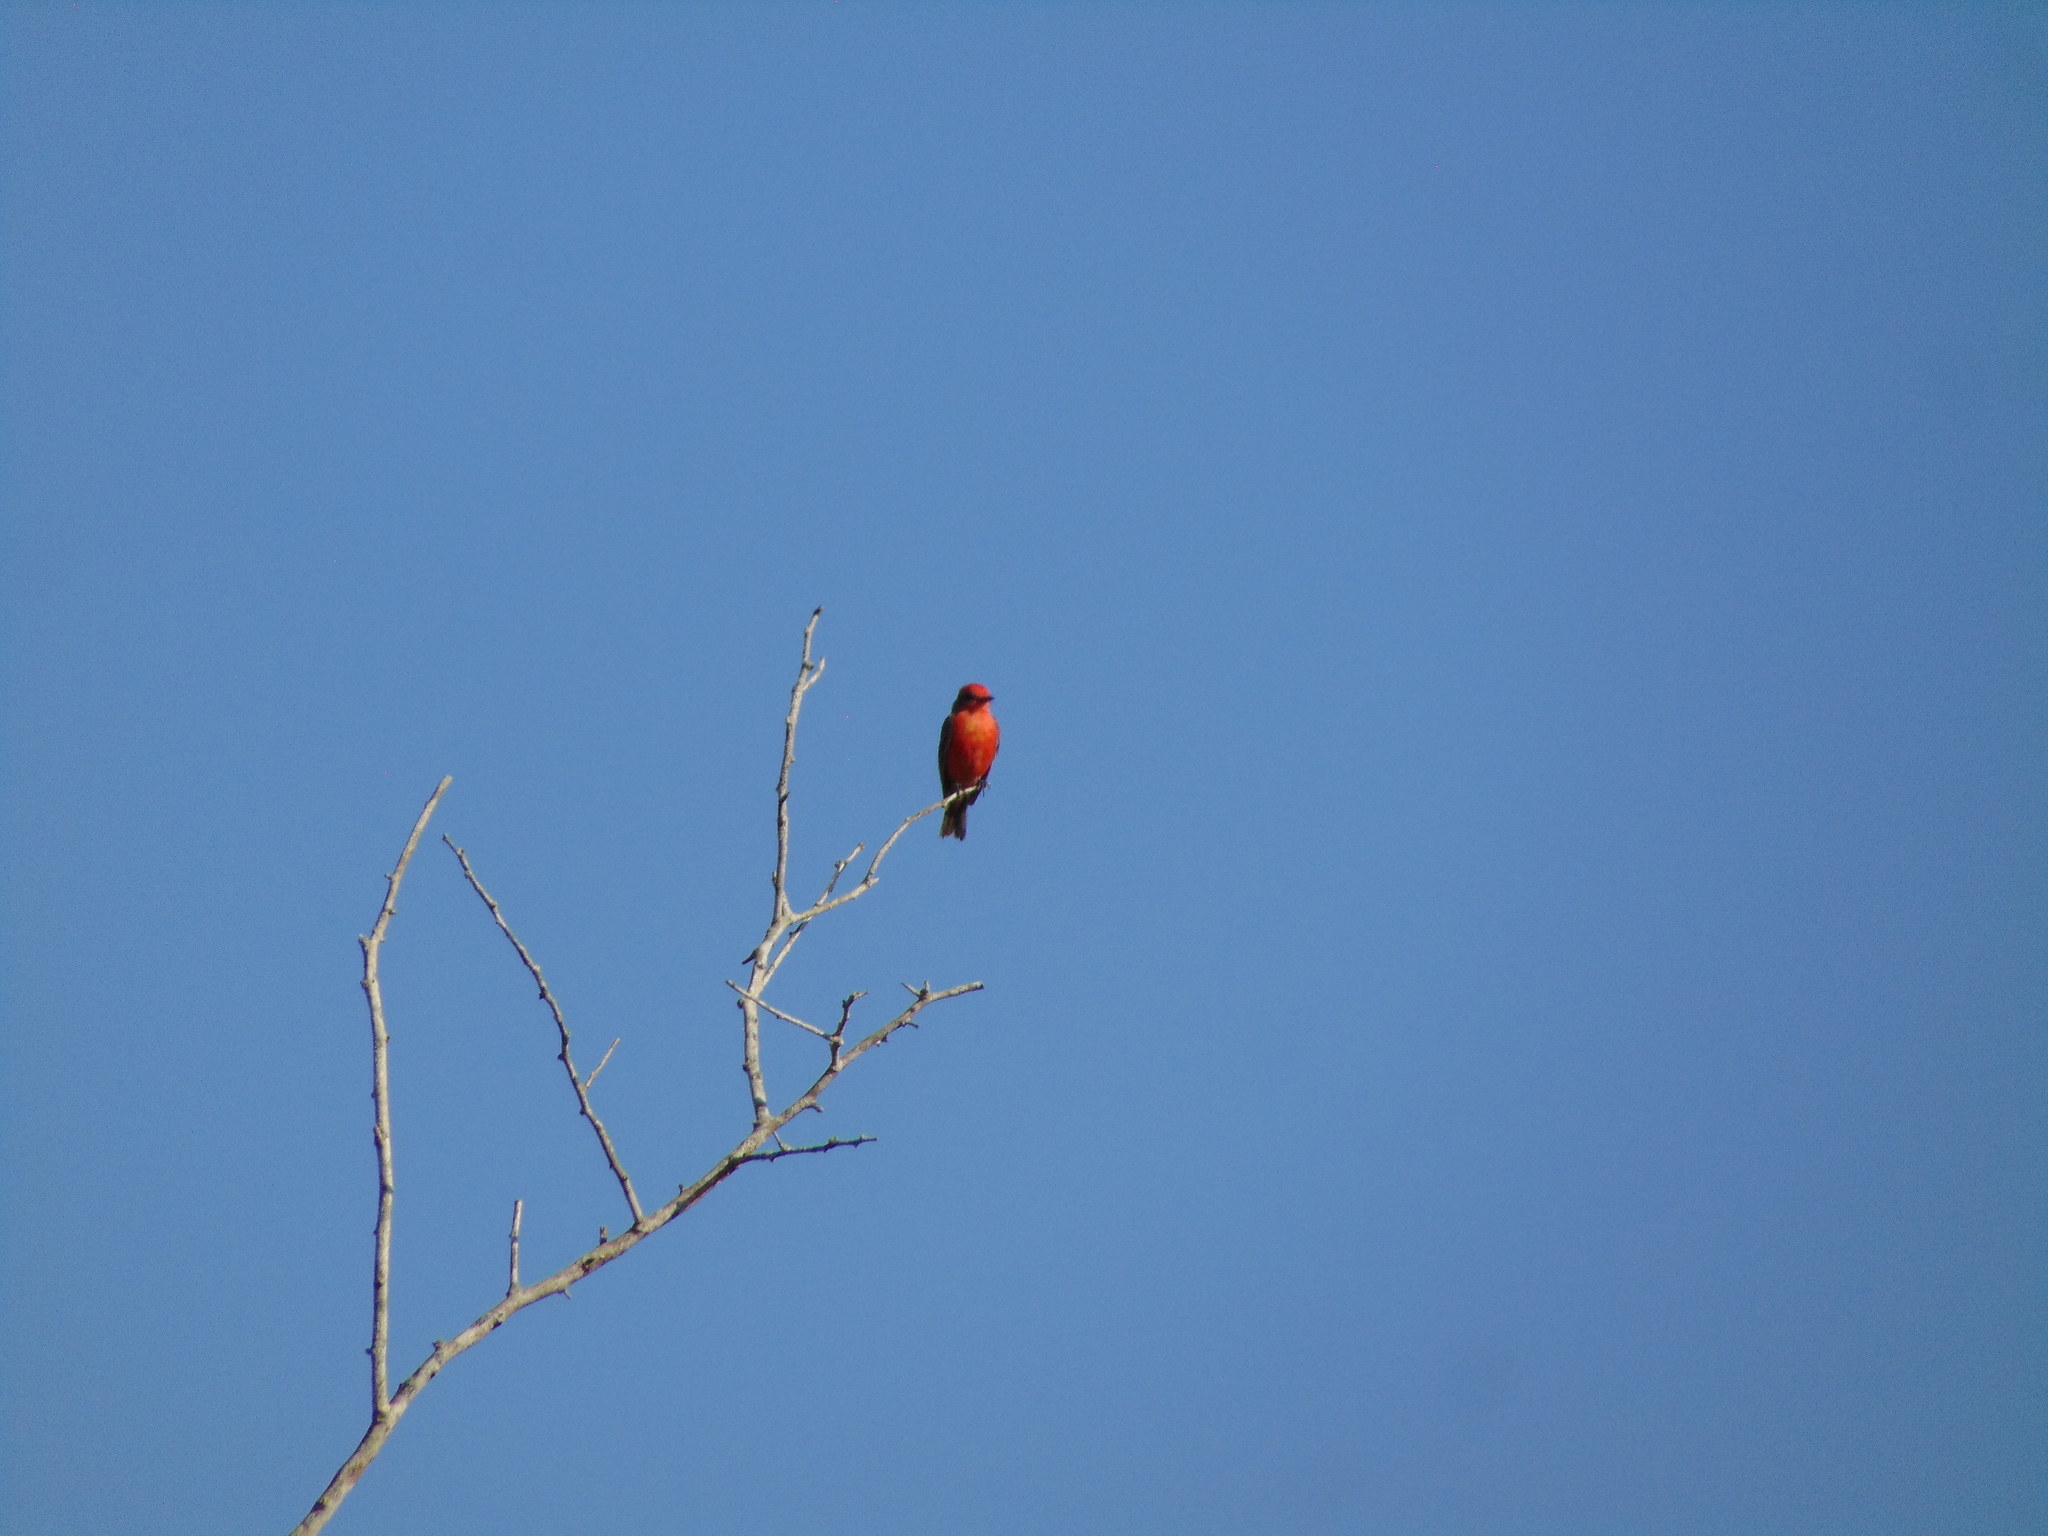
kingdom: Animalia
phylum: Chordata
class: Aves
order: Passeriformes
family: Tyrannidae
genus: Pyrocephalus
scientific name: Pyrocephalus rubinus
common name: Vermilion flycatcher
